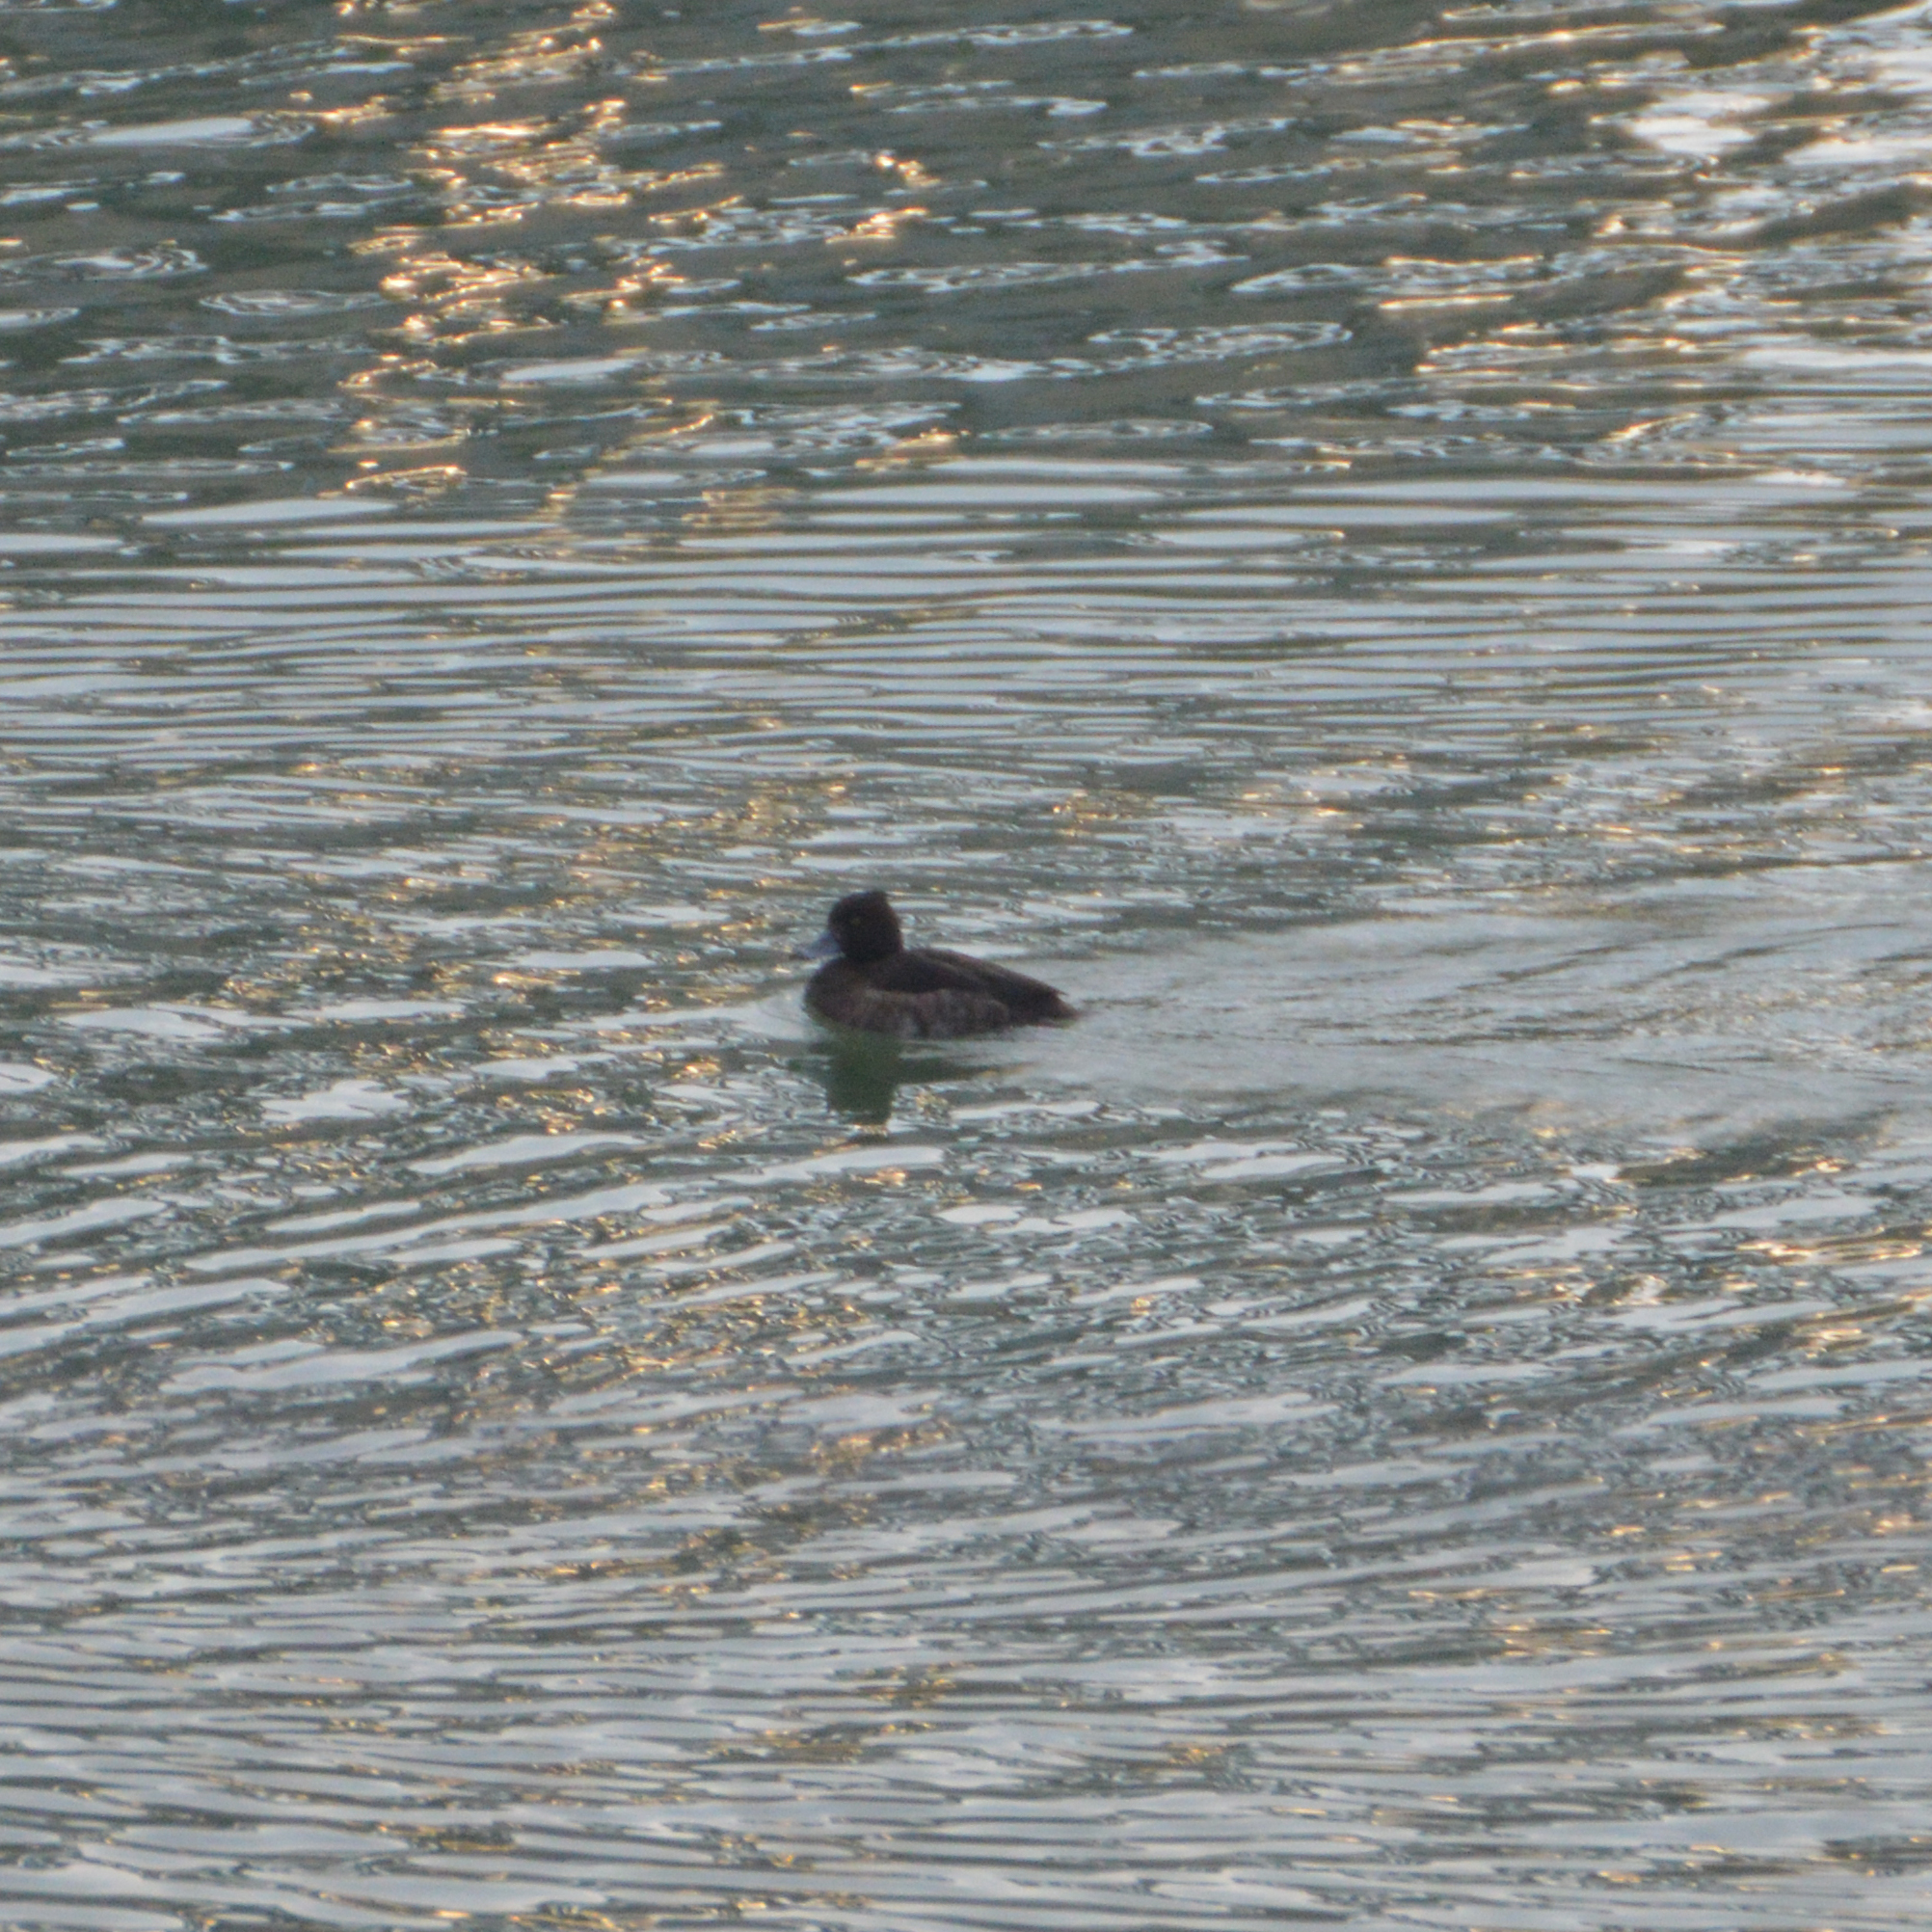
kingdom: Animalia
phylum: Chordata
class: Aves
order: Anseriformes
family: Anatidae
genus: Aythya
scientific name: Aythya fuligula
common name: Tufted duck
